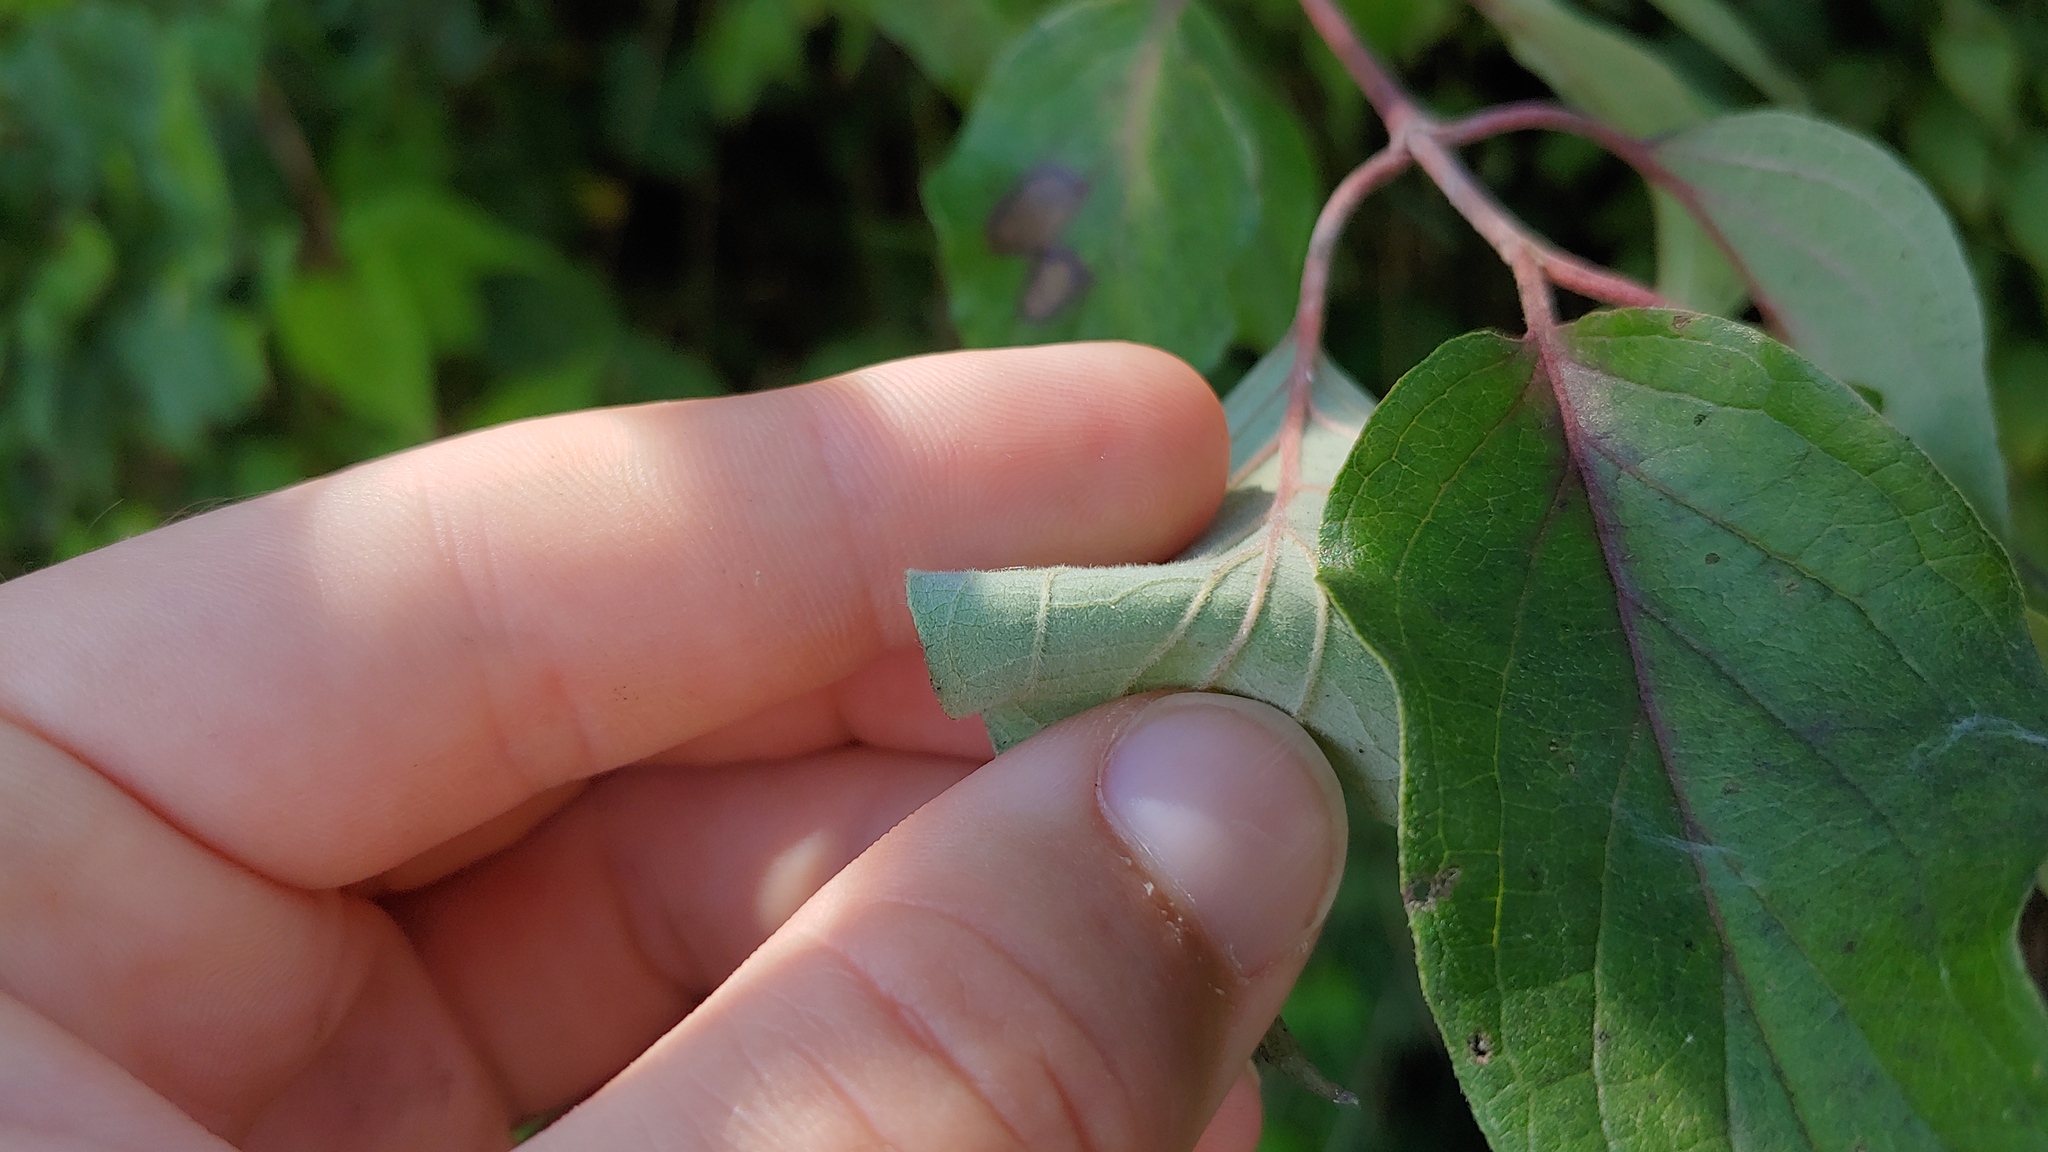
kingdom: Plantae
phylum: Tracheophyta
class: Magnoliopsida
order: Cornales
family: Cornaceae
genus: Cornus
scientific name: Cornus drummondii
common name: Rough-leaf dogwood
